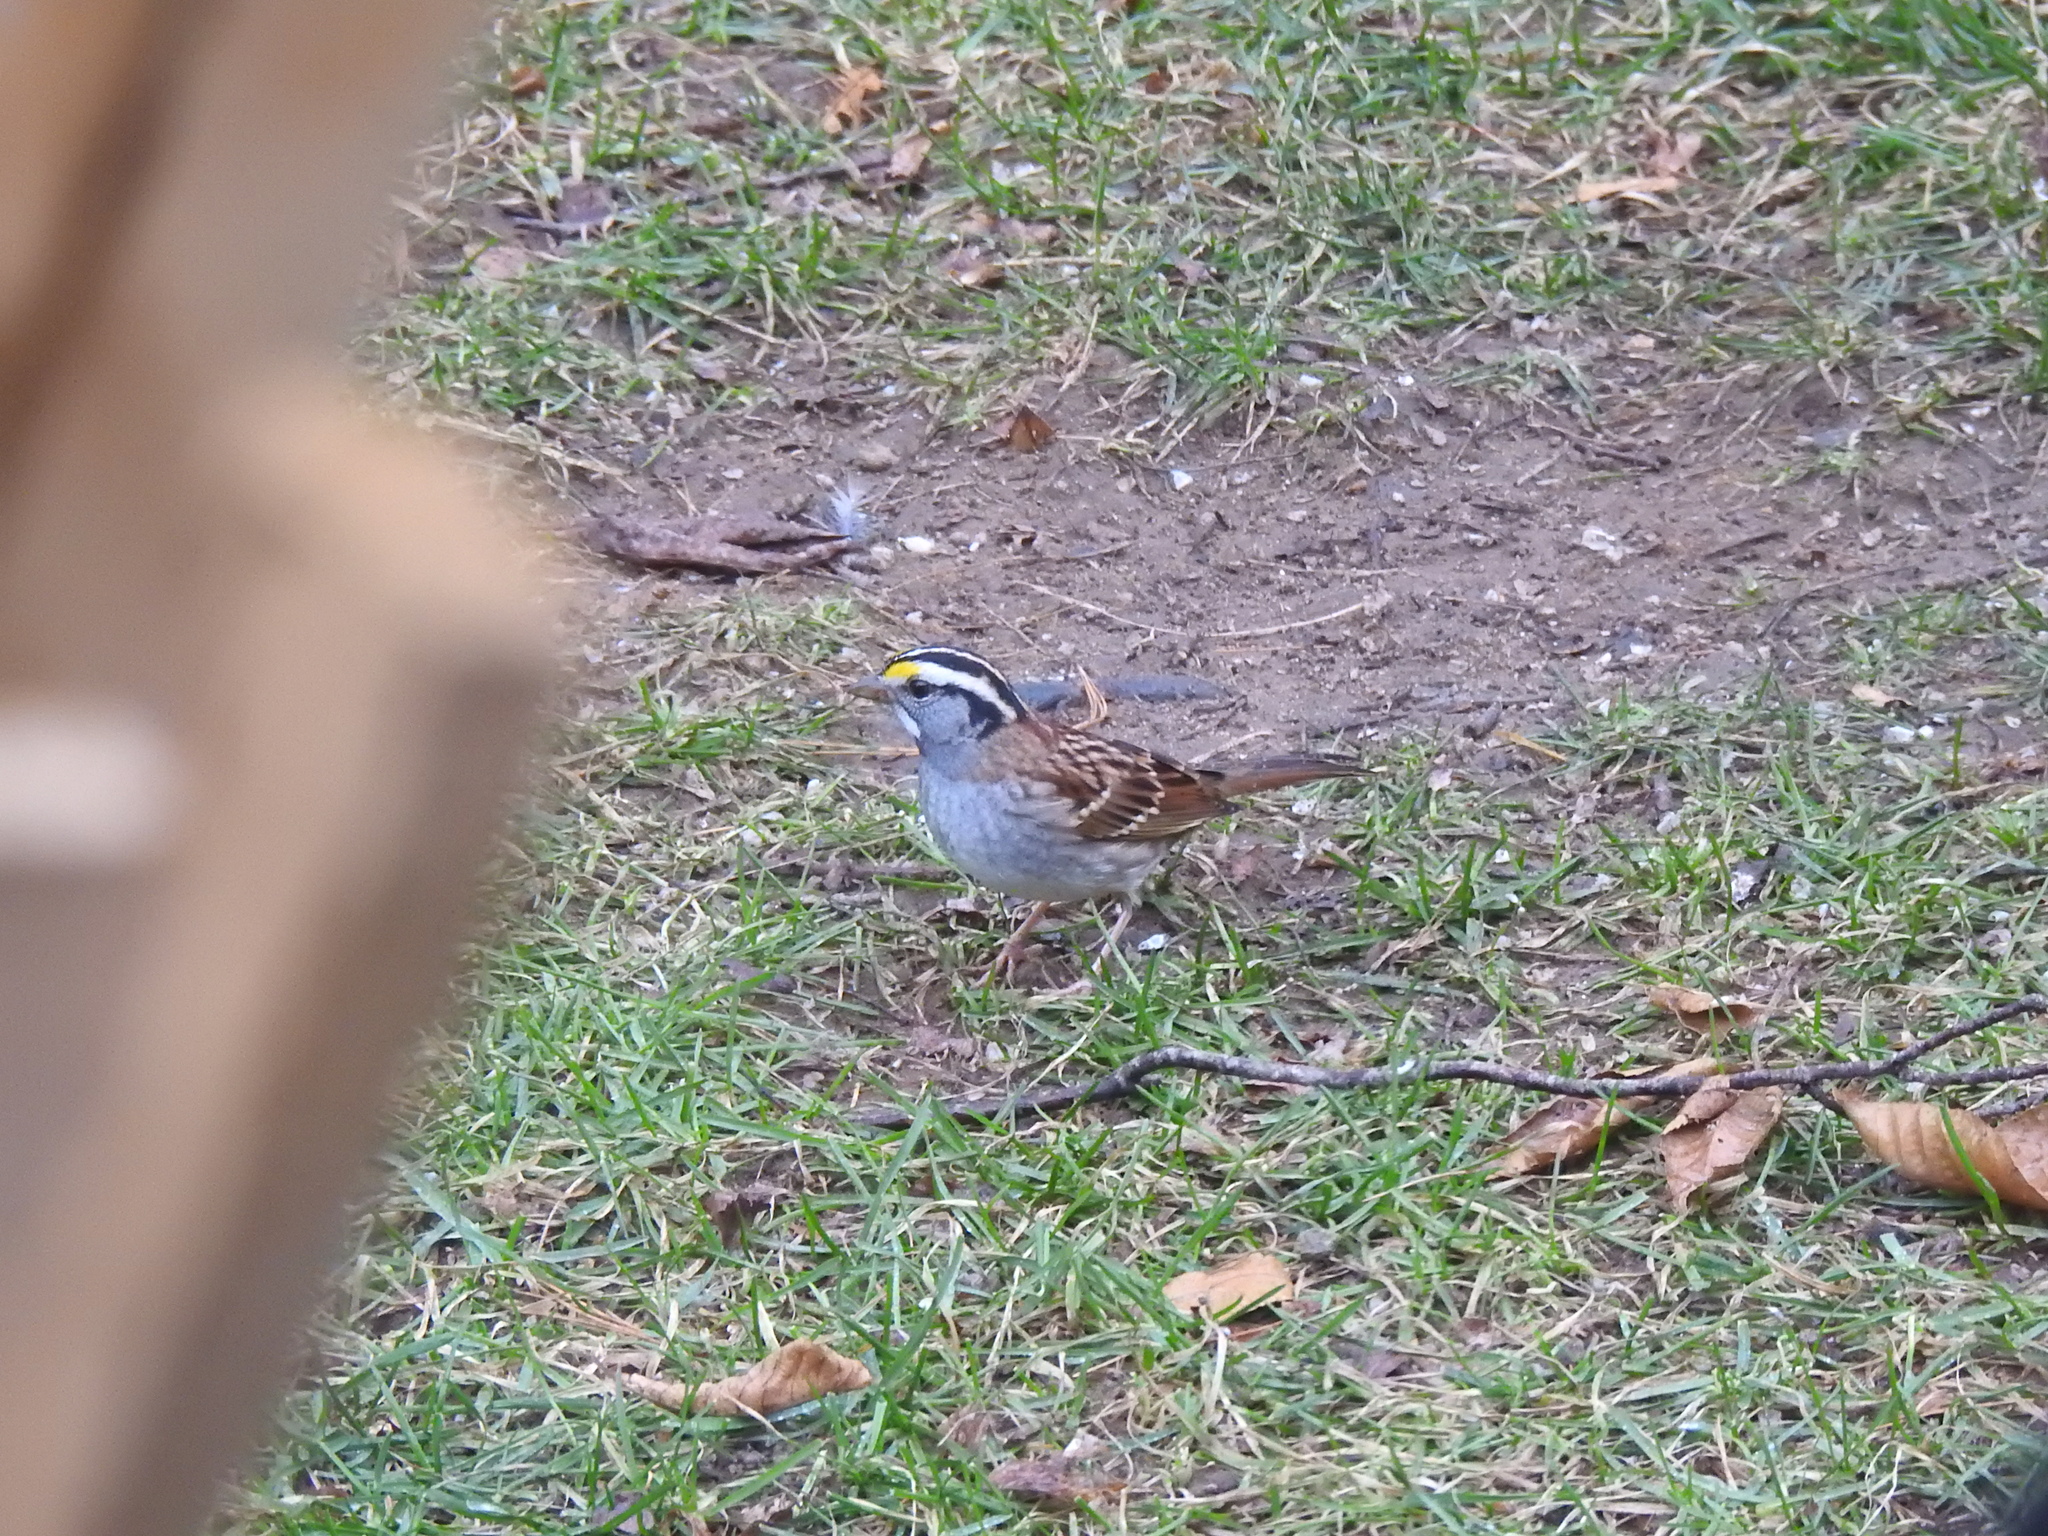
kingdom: Animalia
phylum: Chordata
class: Aves
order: Passeriformes
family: Passerellidae
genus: Zonotrichia
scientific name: Zonotrichia albicollis
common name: White-throated sparrow
